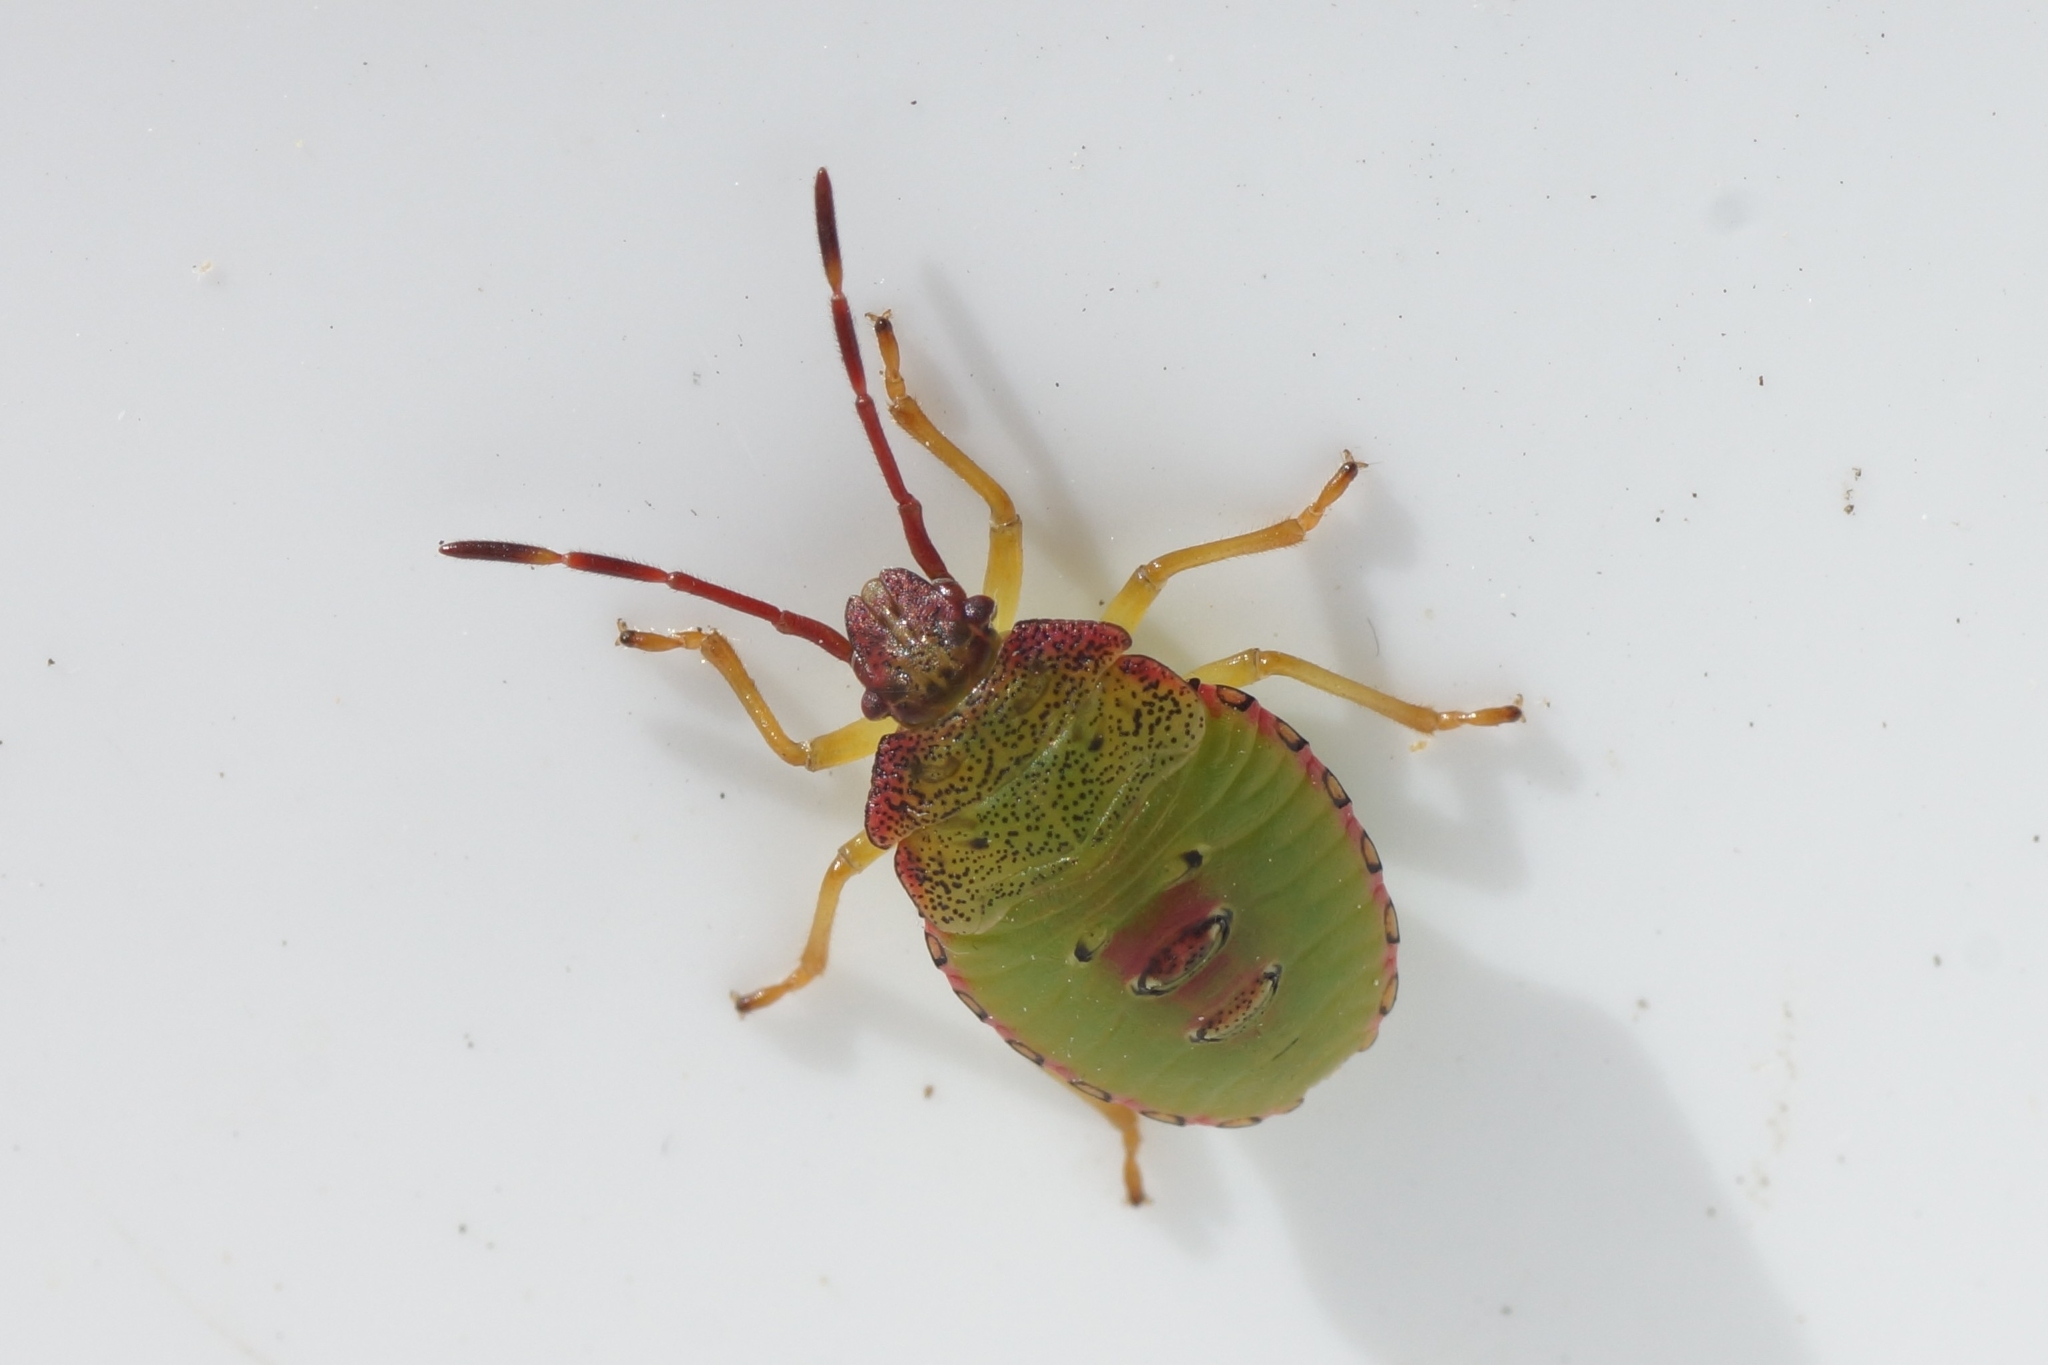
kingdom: Animalia
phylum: Arthropoda
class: Insecta
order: Hemiptera
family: Acanthosomatidae
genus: Acanthosoma
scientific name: Acanthosoma haemorrhoidale
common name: Hawthorn shieldbug
